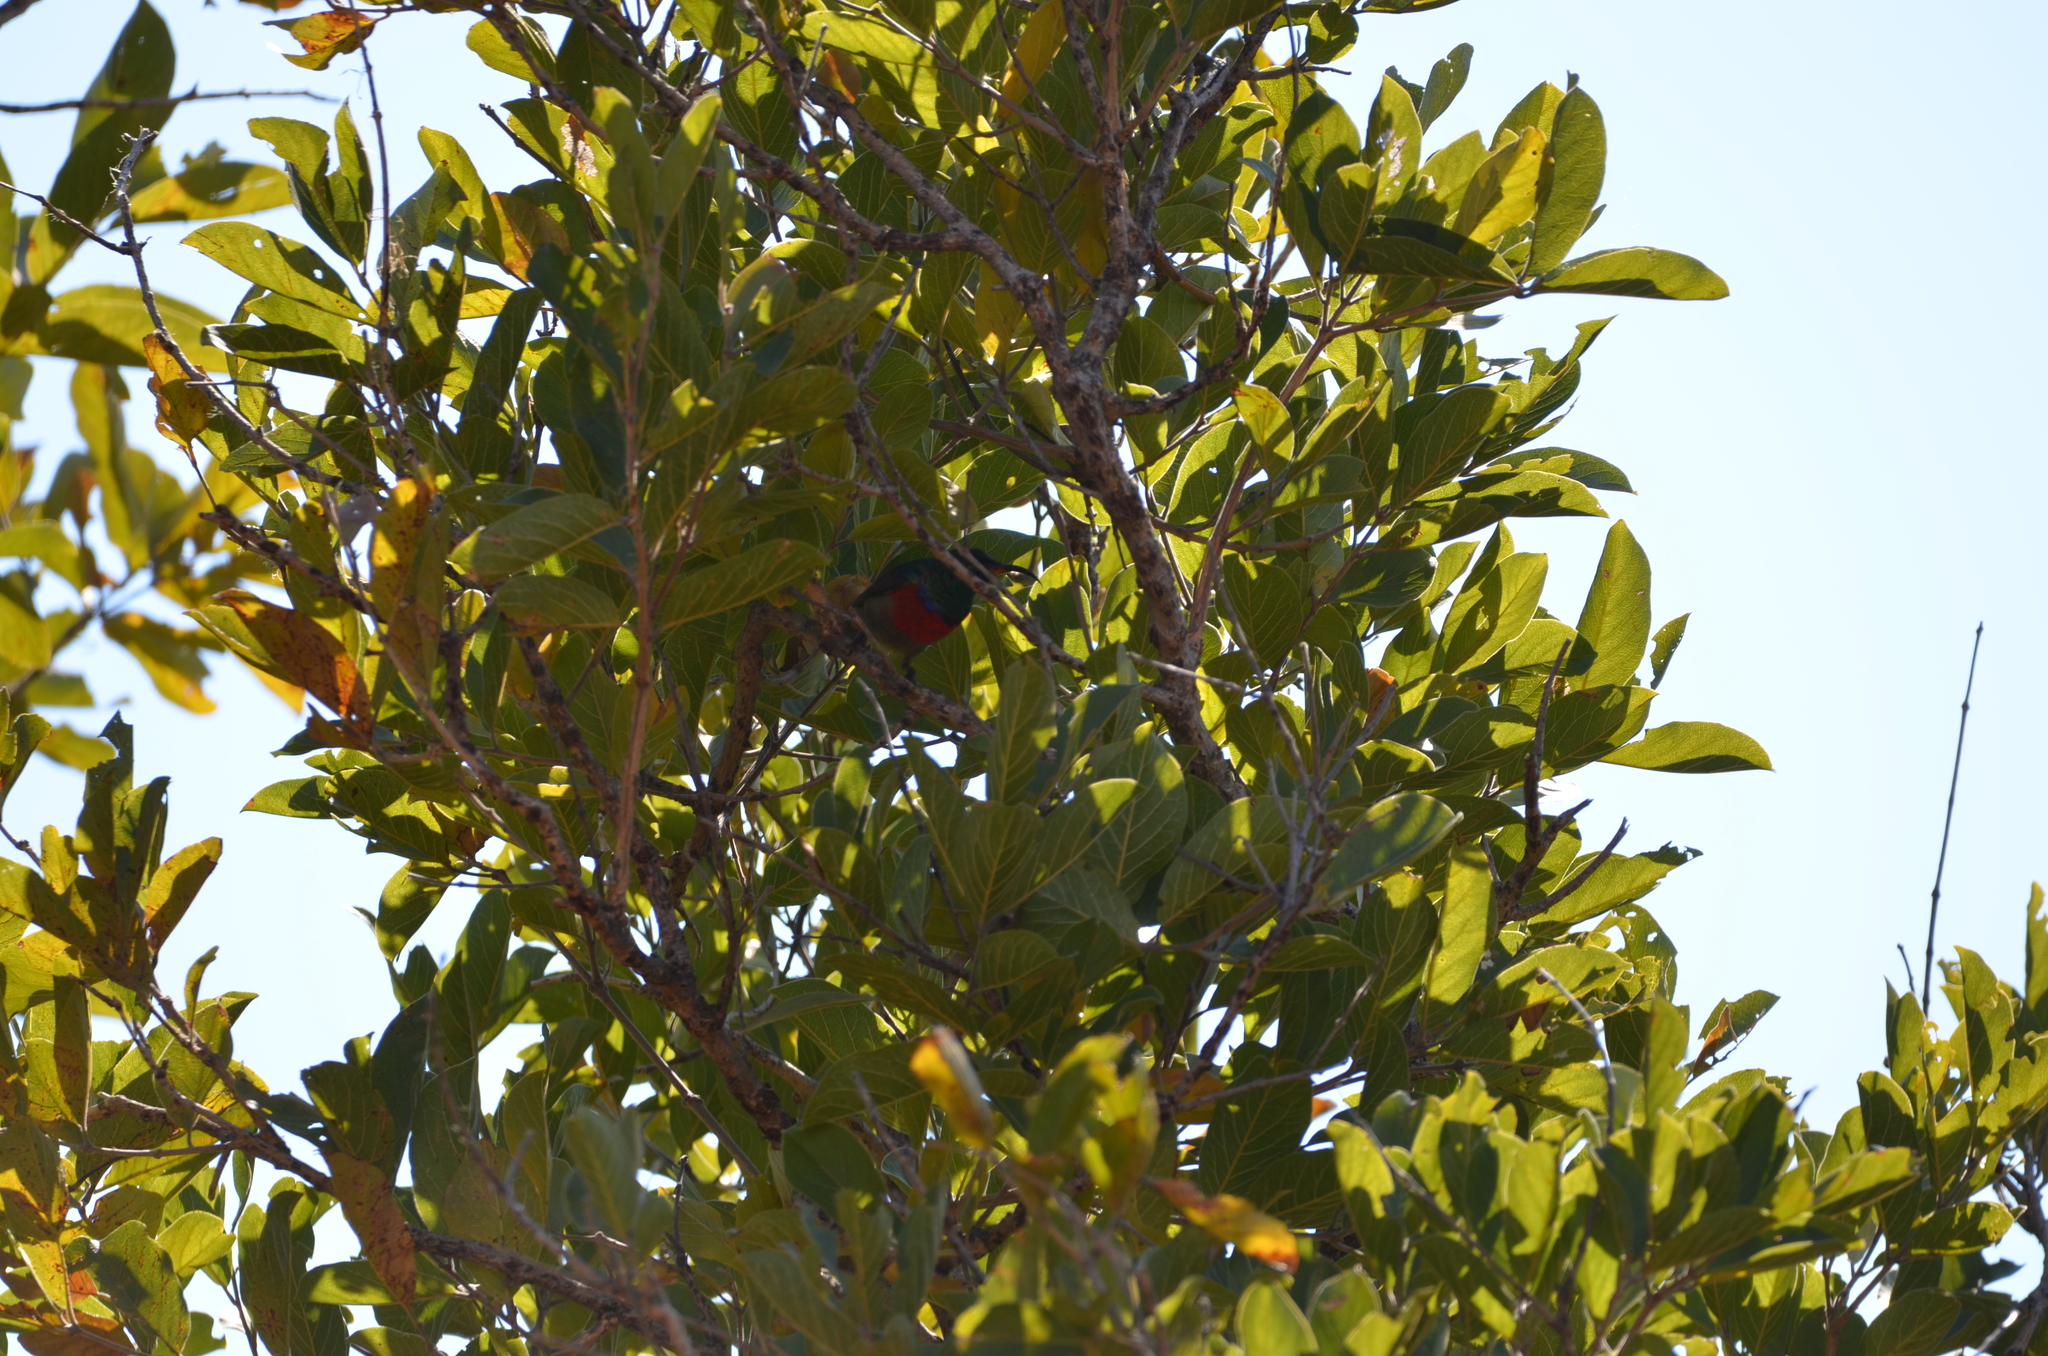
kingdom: Animalia
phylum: Chordata
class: Aves
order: Passeriformes
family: Nectariniidae
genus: Cinnyris
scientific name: Cinnyris afer
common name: Greater double-collared sunbird
